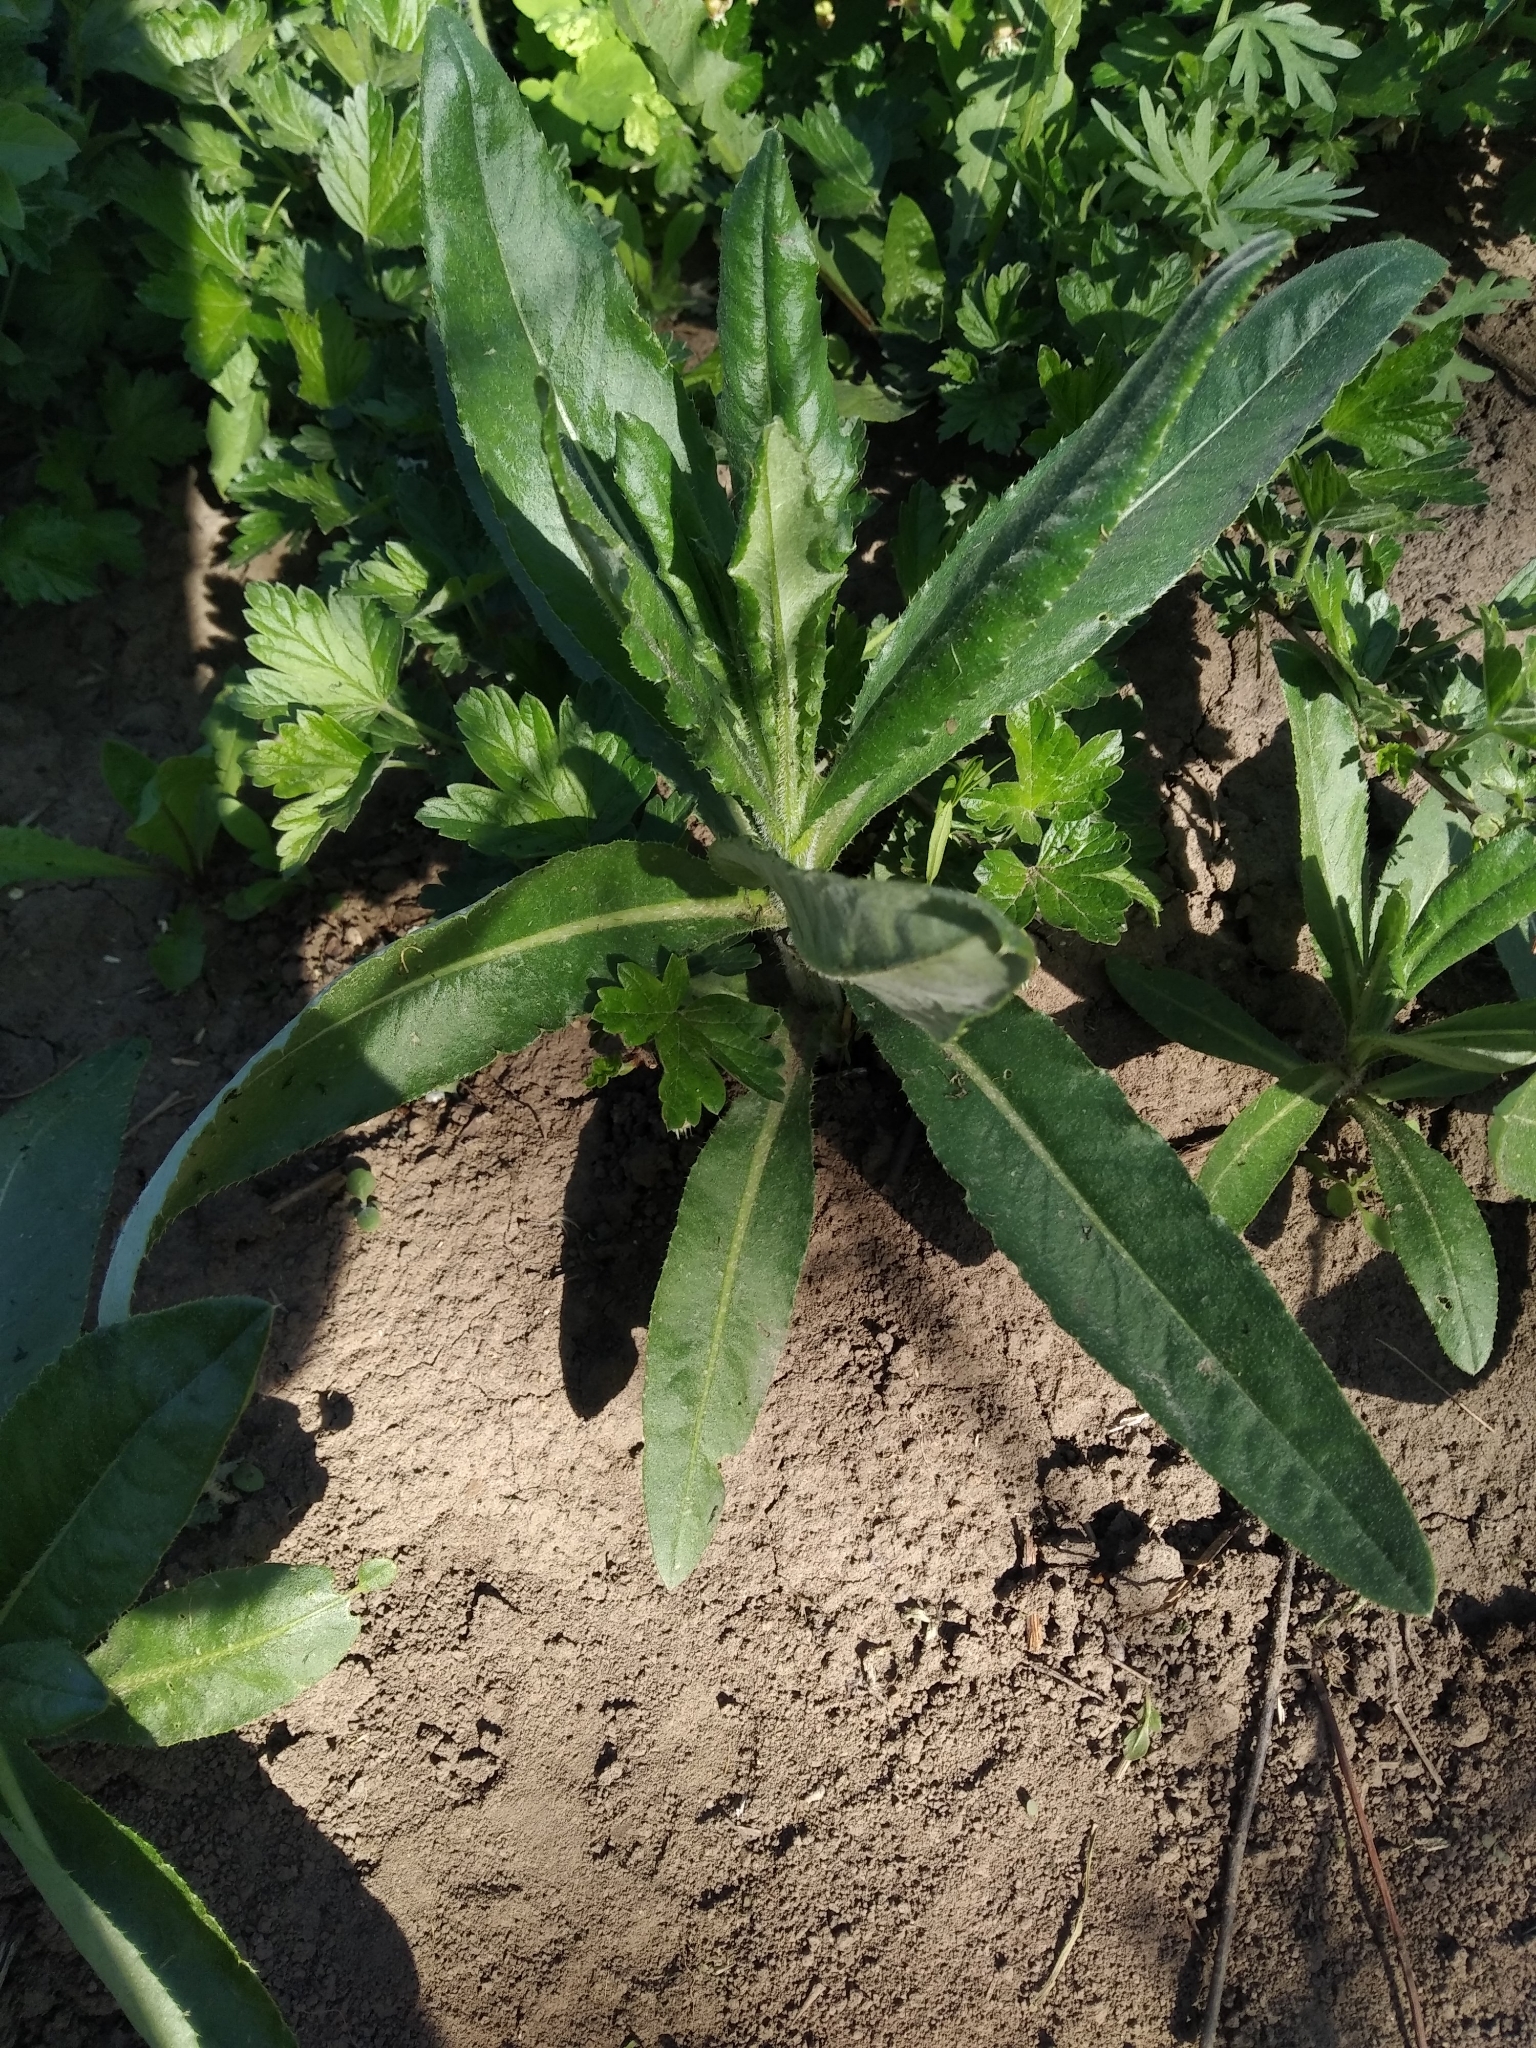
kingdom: Plantae
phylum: Tracheophyta
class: Magnoliopsida
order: Asterales
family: Asteraceae
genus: Cirsium
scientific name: Cirsium arvense
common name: Creeping thistle
